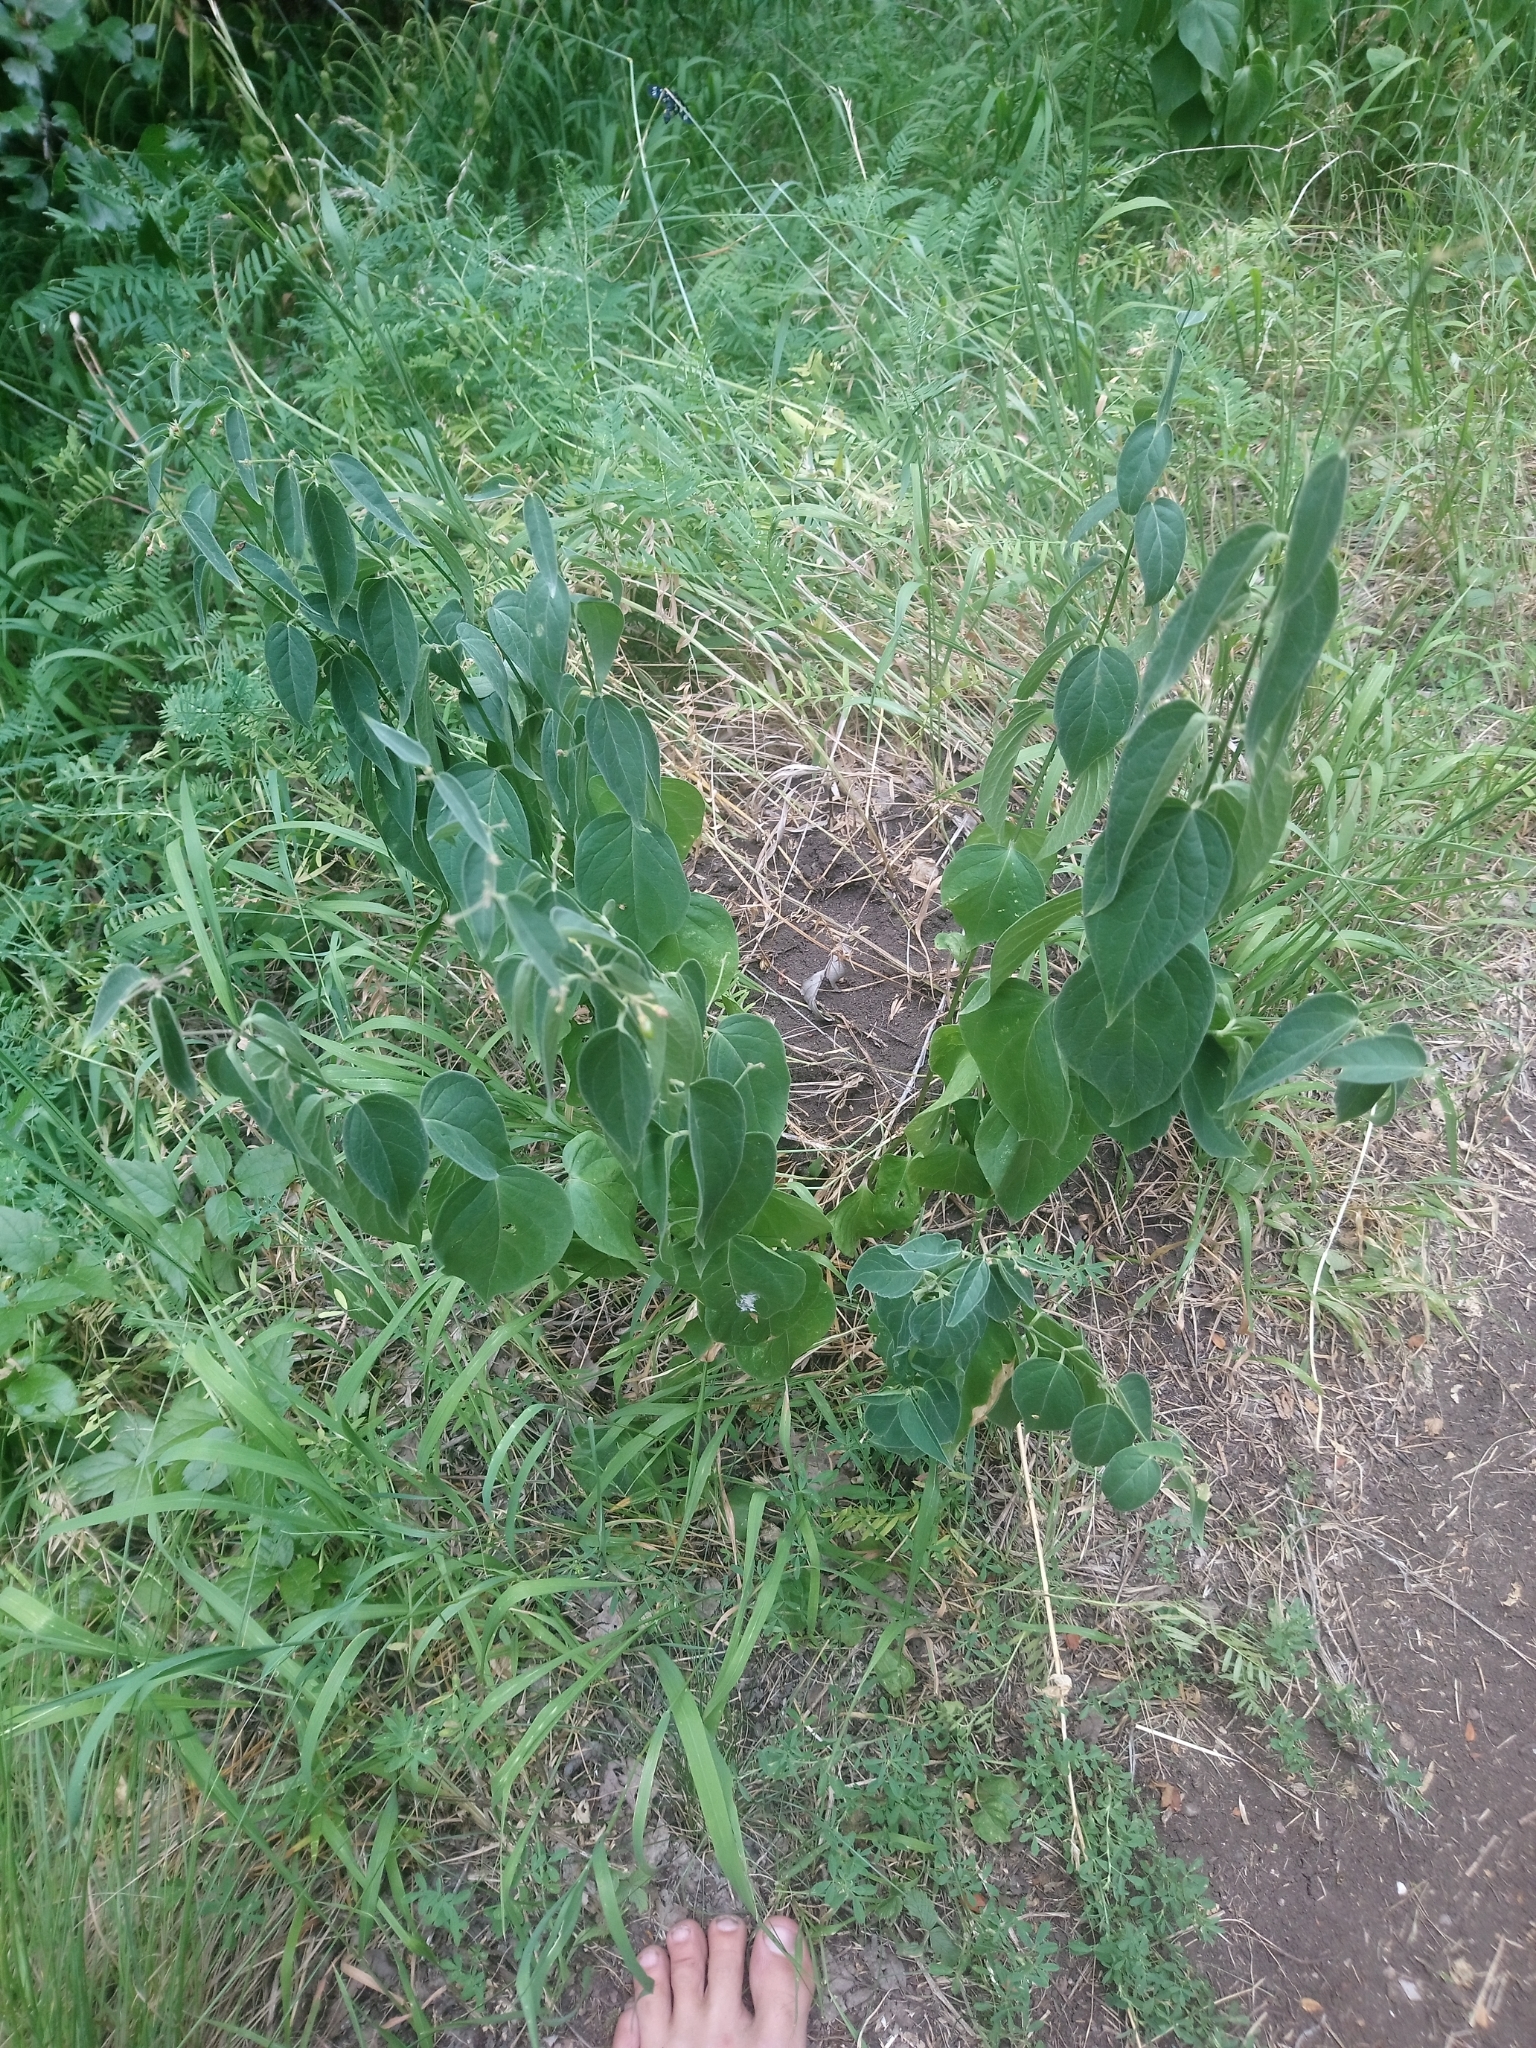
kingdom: Plantae
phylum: Tracheophyta
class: Magnoliopsida
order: Gentianales
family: Apocynaceae
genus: Vincetoxicum
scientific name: Vincetoxicum hirundinaria
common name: White swallowwort
